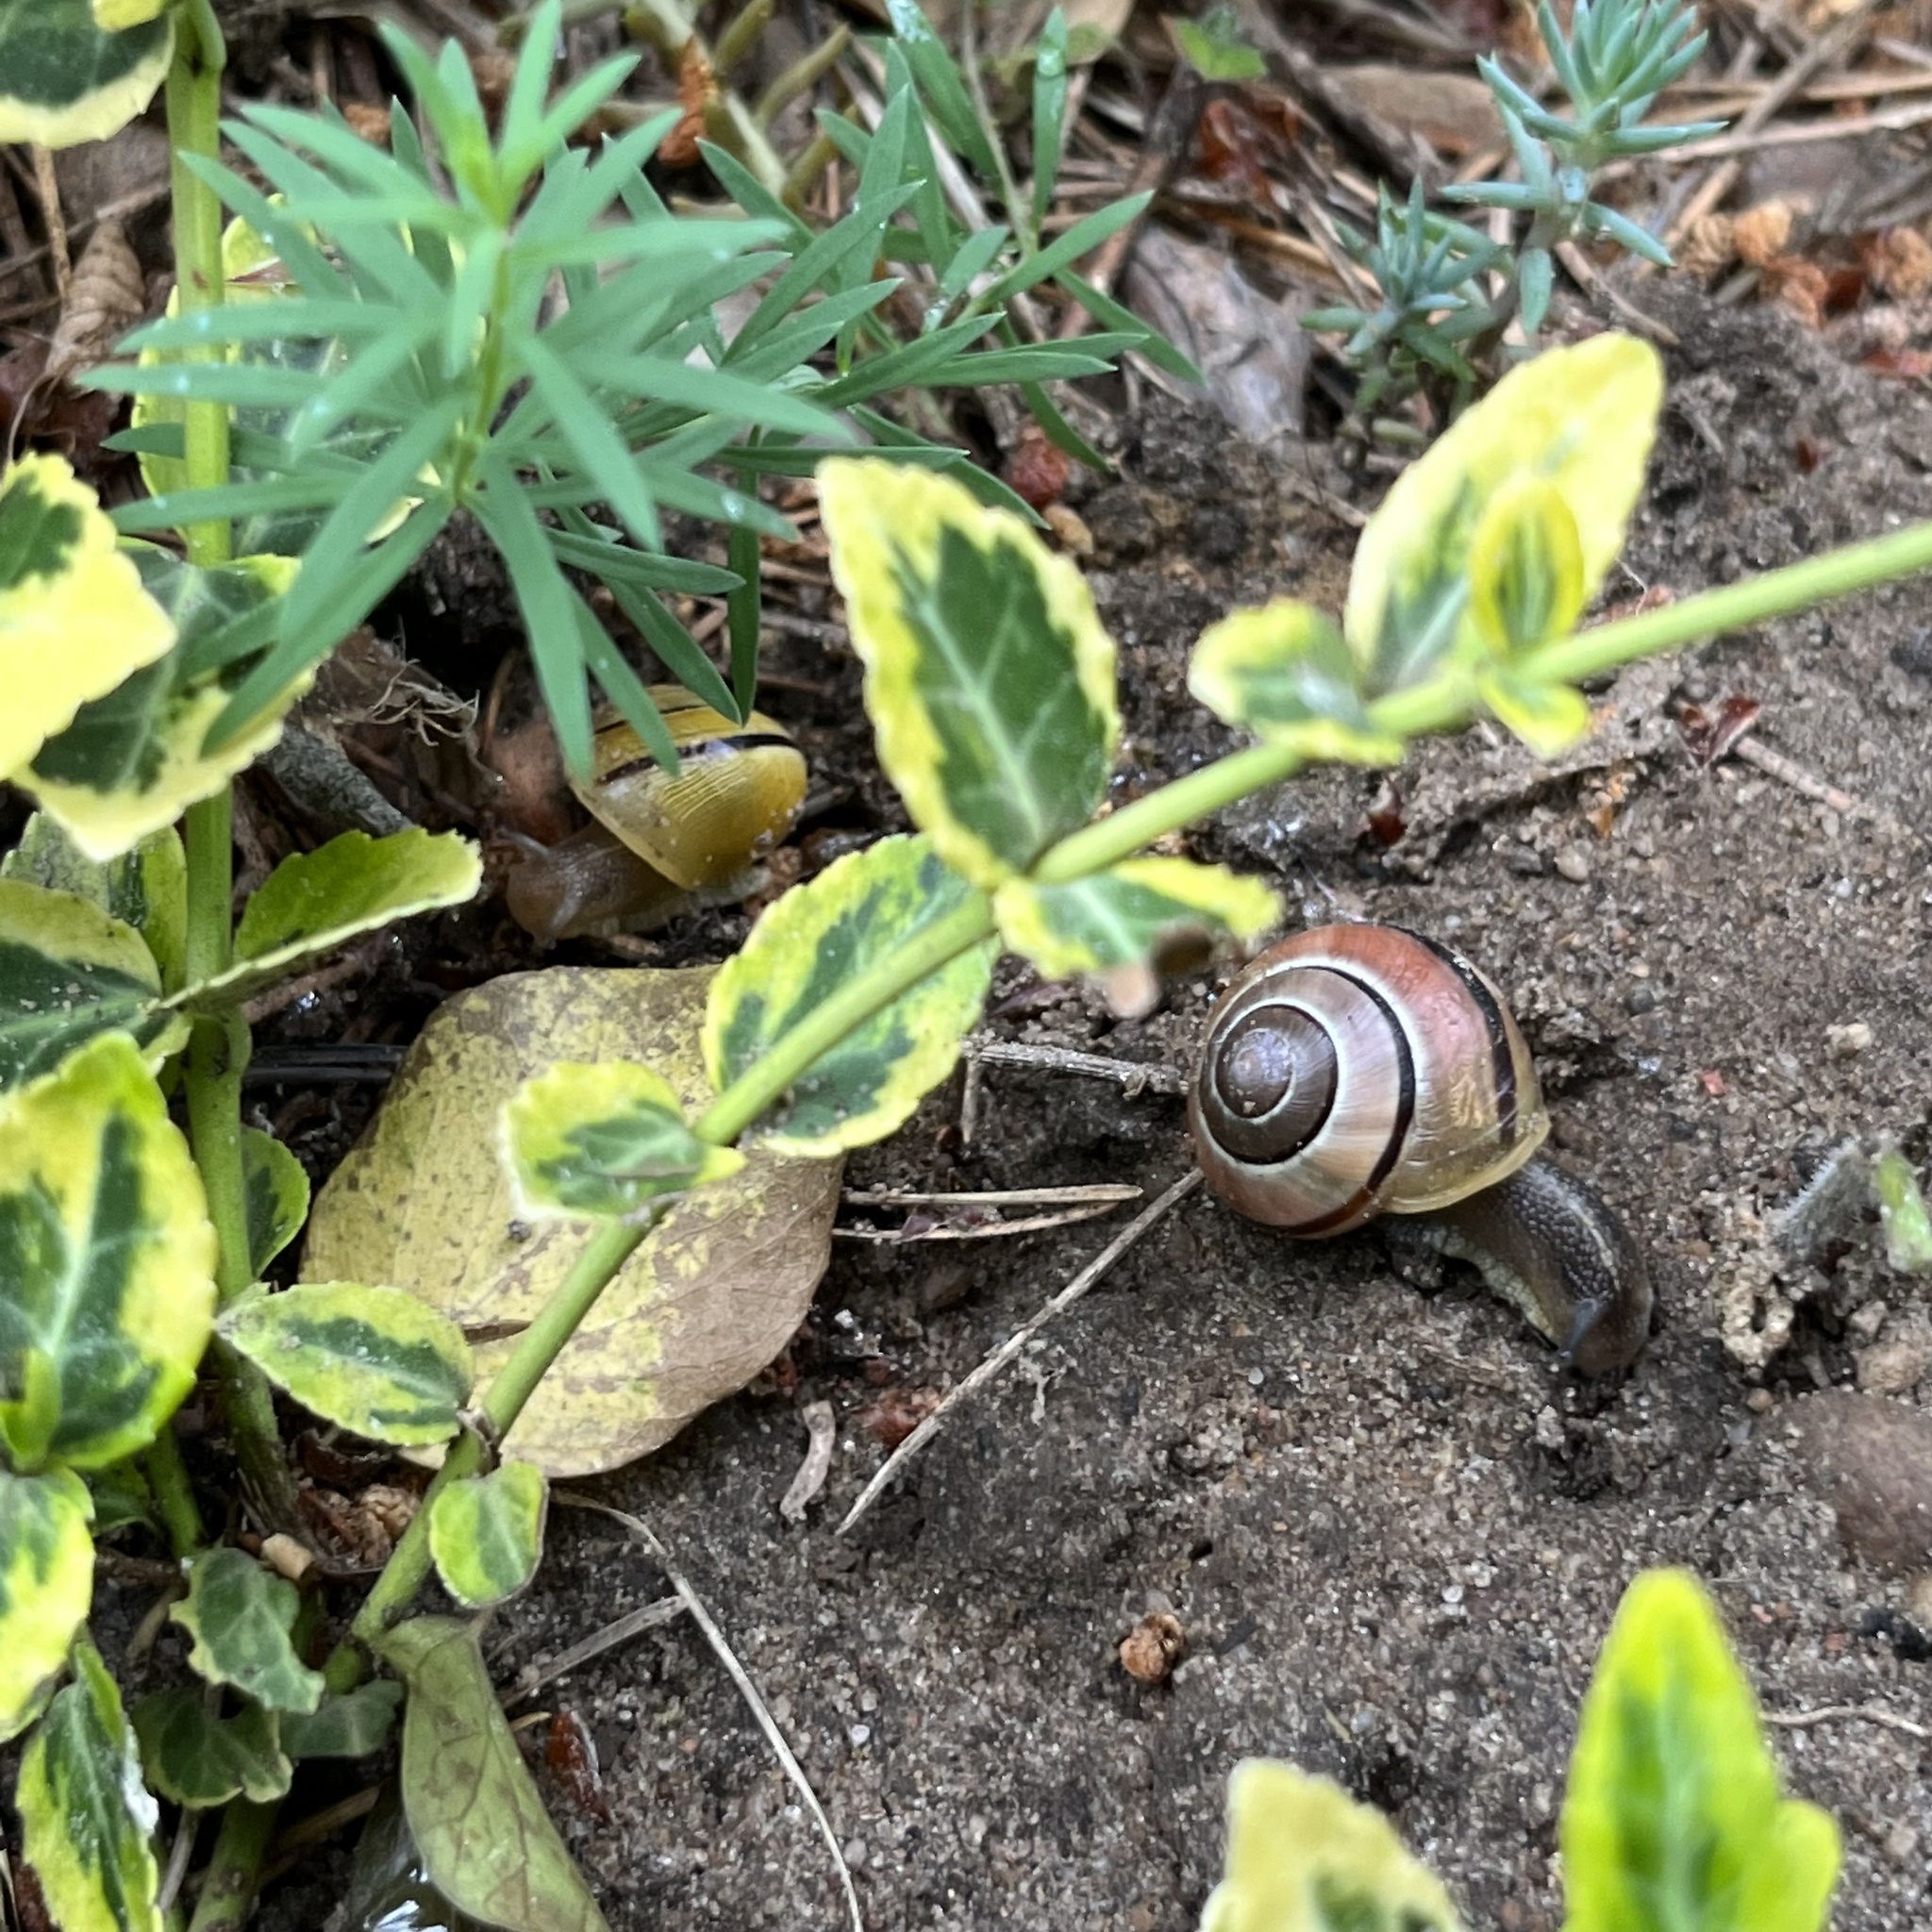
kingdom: Animalia
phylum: Mollusca
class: Gastropoda
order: Stylommatophora
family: Helicidae
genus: Cepaea
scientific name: Cepaea nemoralis
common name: Grovesnail
